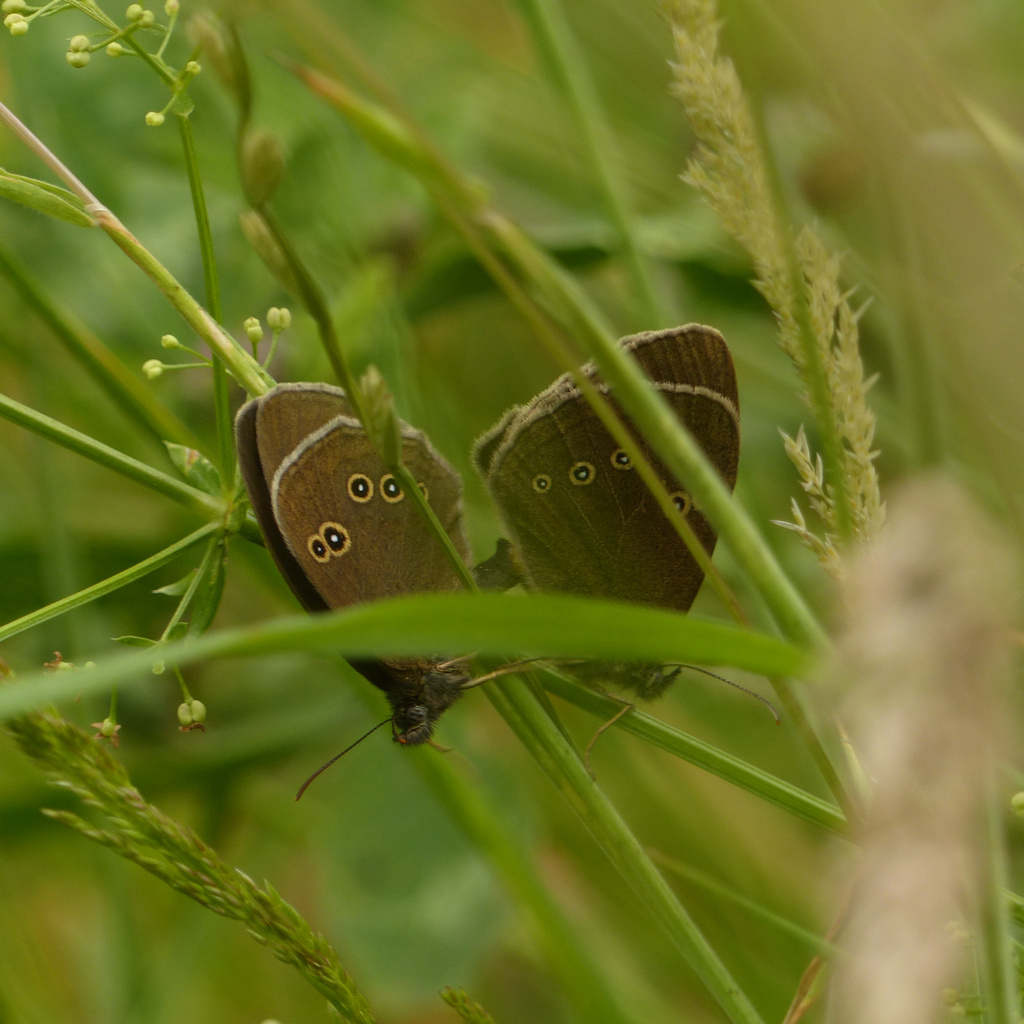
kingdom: Animalia
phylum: Arthropoda
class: Insecta
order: Lepidoptera
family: Nymphalidae
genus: Aphantopus
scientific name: Aphantopus hyperantus
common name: Ringlet
